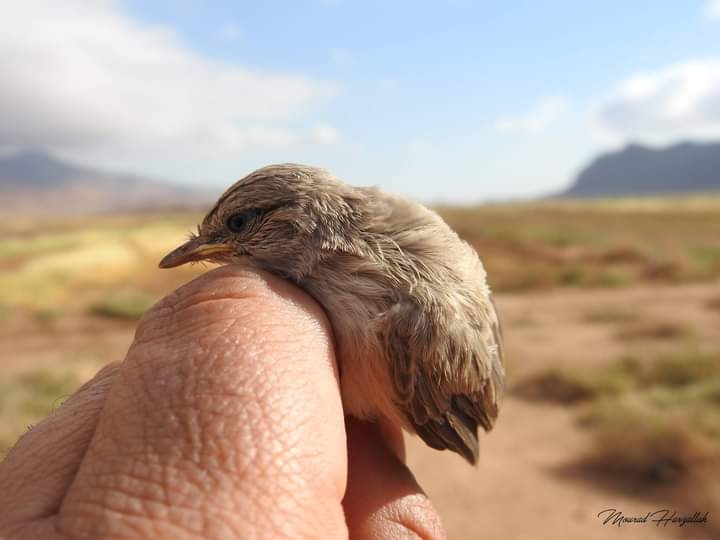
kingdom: Animalia
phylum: Chordata
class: Aves
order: Passeriformes
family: Scotocercidae
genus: Scotocerca
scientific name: Scotocerca inquieta
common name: Scrub warbler
